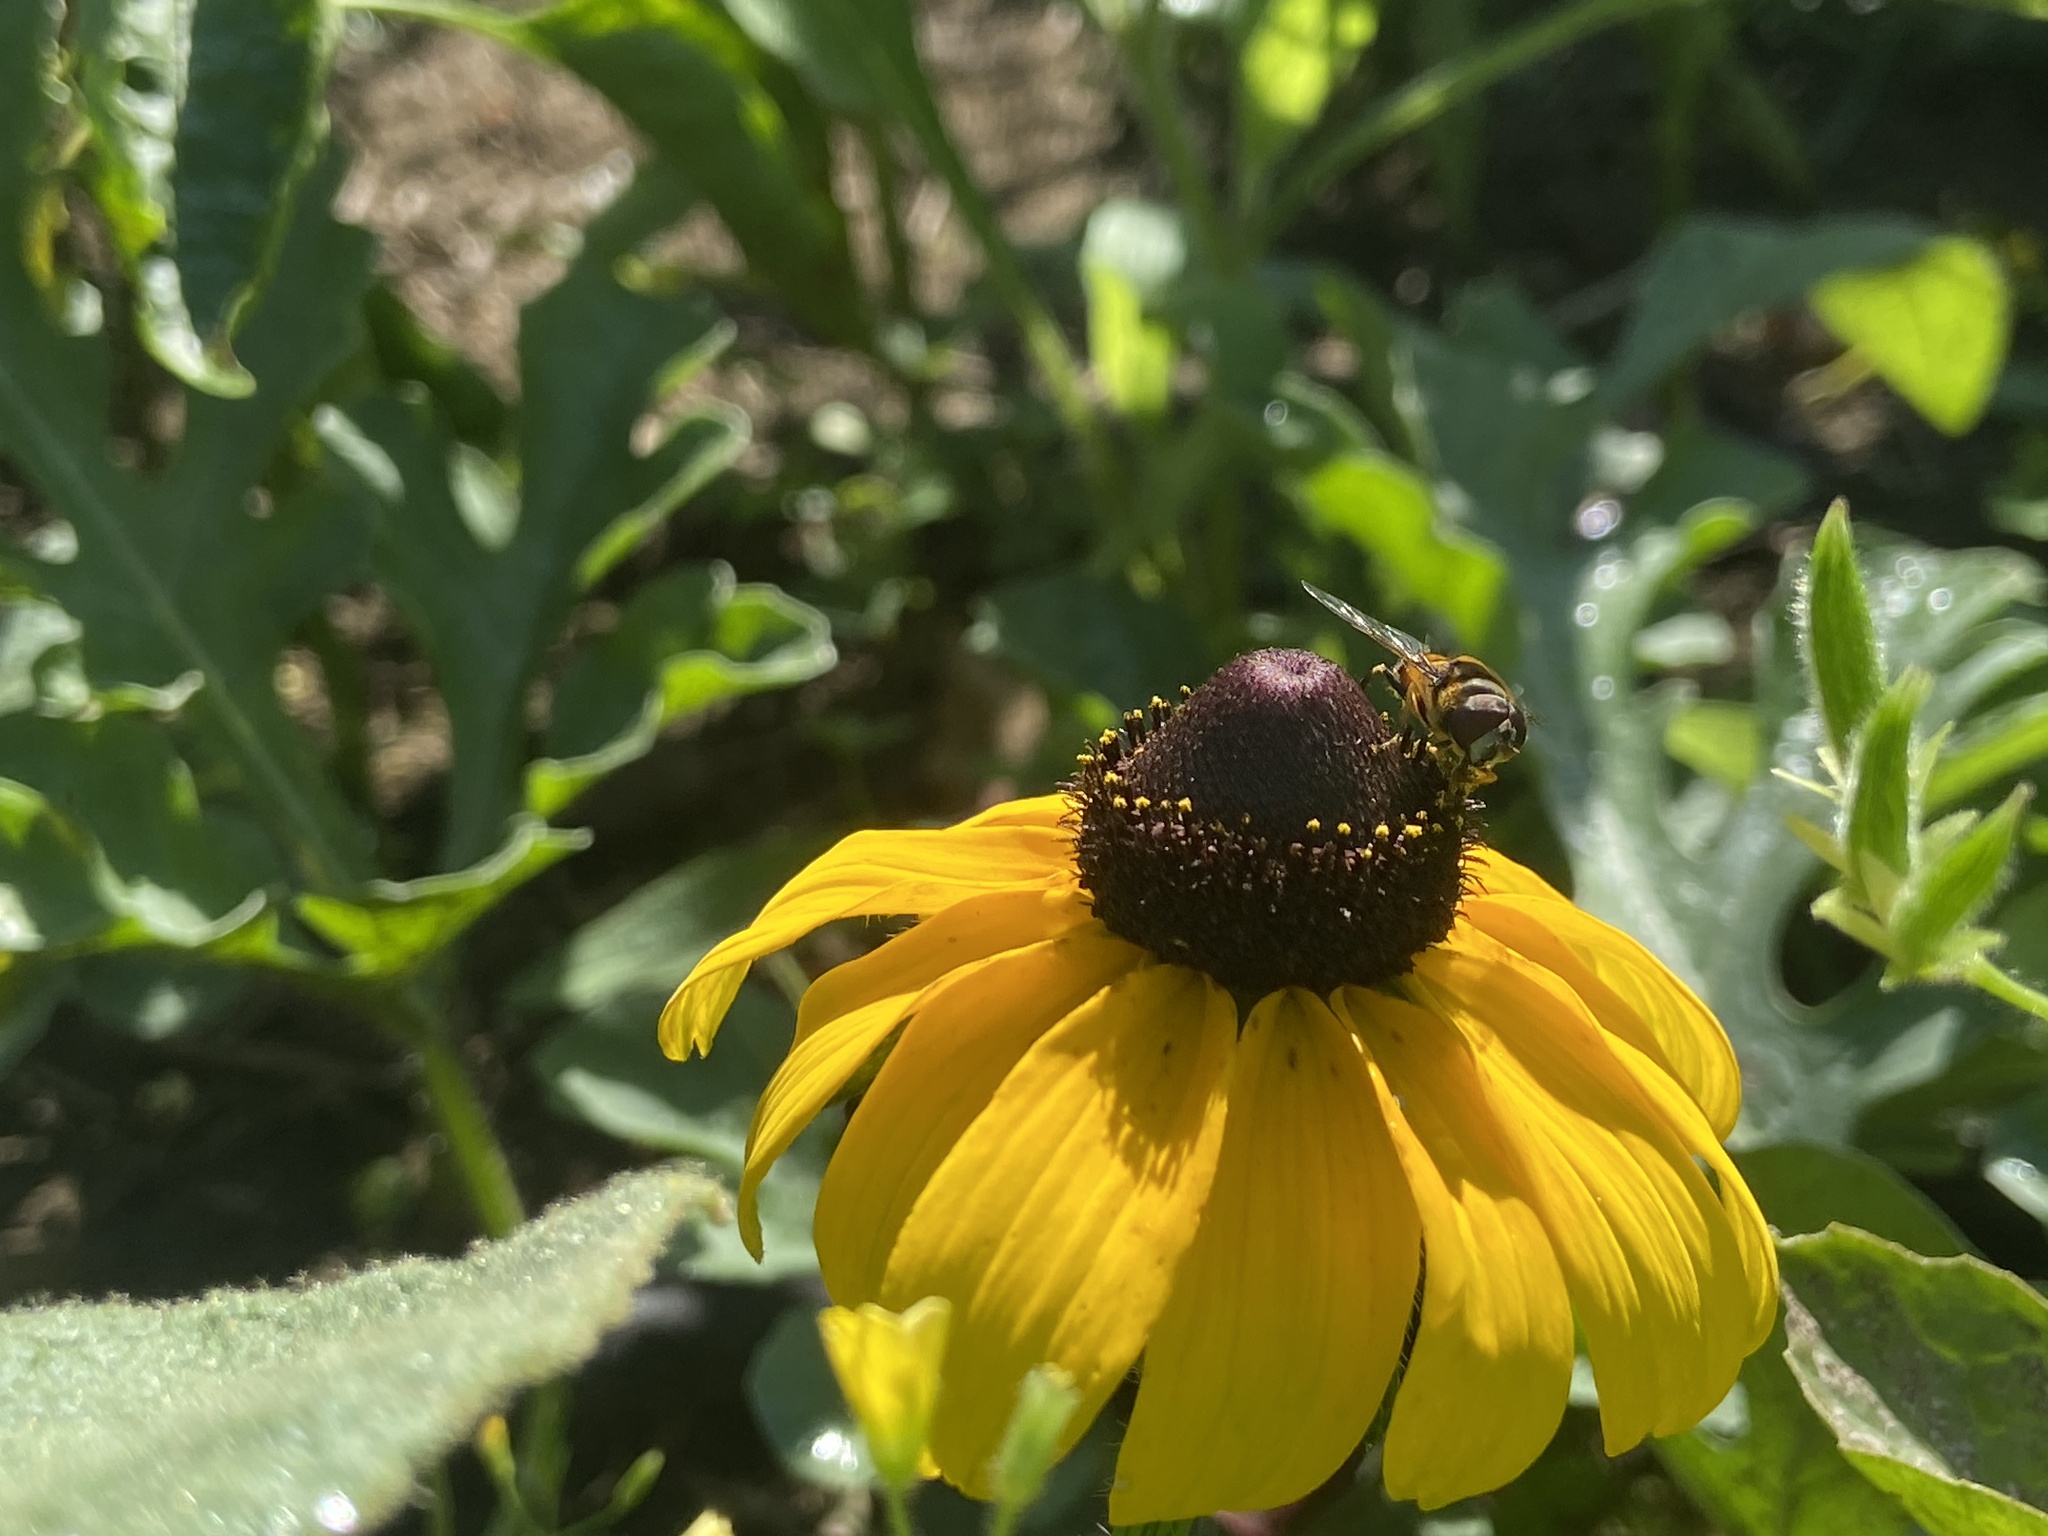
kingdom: Animalia
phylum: Arthropoda
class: Insecta
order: Diptera
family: Syrphidae
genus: Eristalis
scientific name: Eristalis transversa
